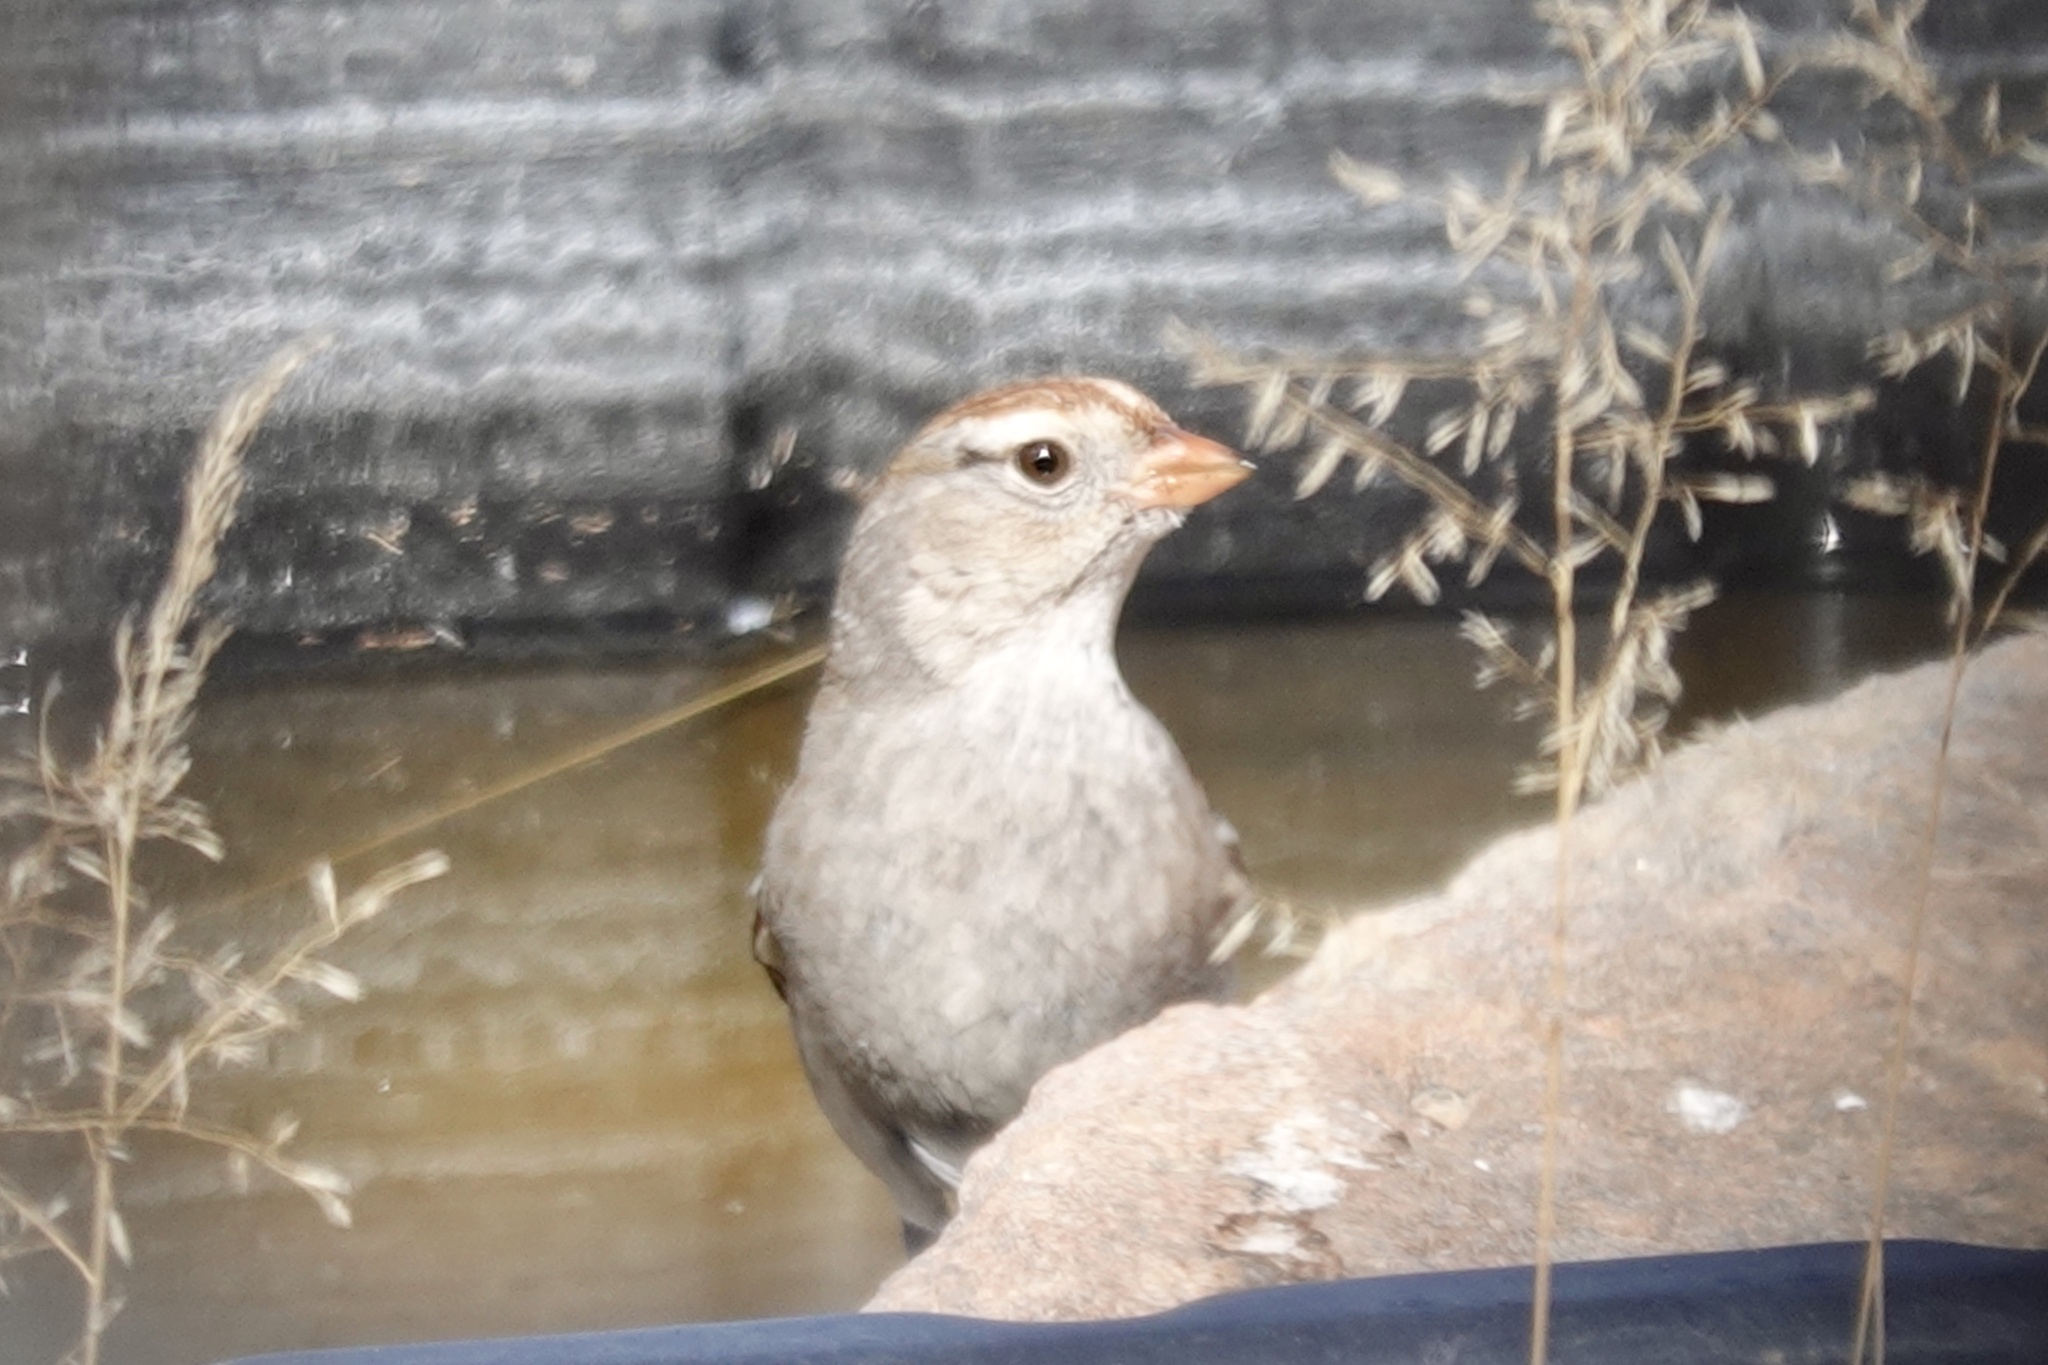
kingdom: Animalia
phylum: Chordata
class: Aves
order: Passeriformes
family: Passerellidae
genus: Zonotrichia
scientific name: Zonotrichia leucophrys
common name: White-crowned sparrow
